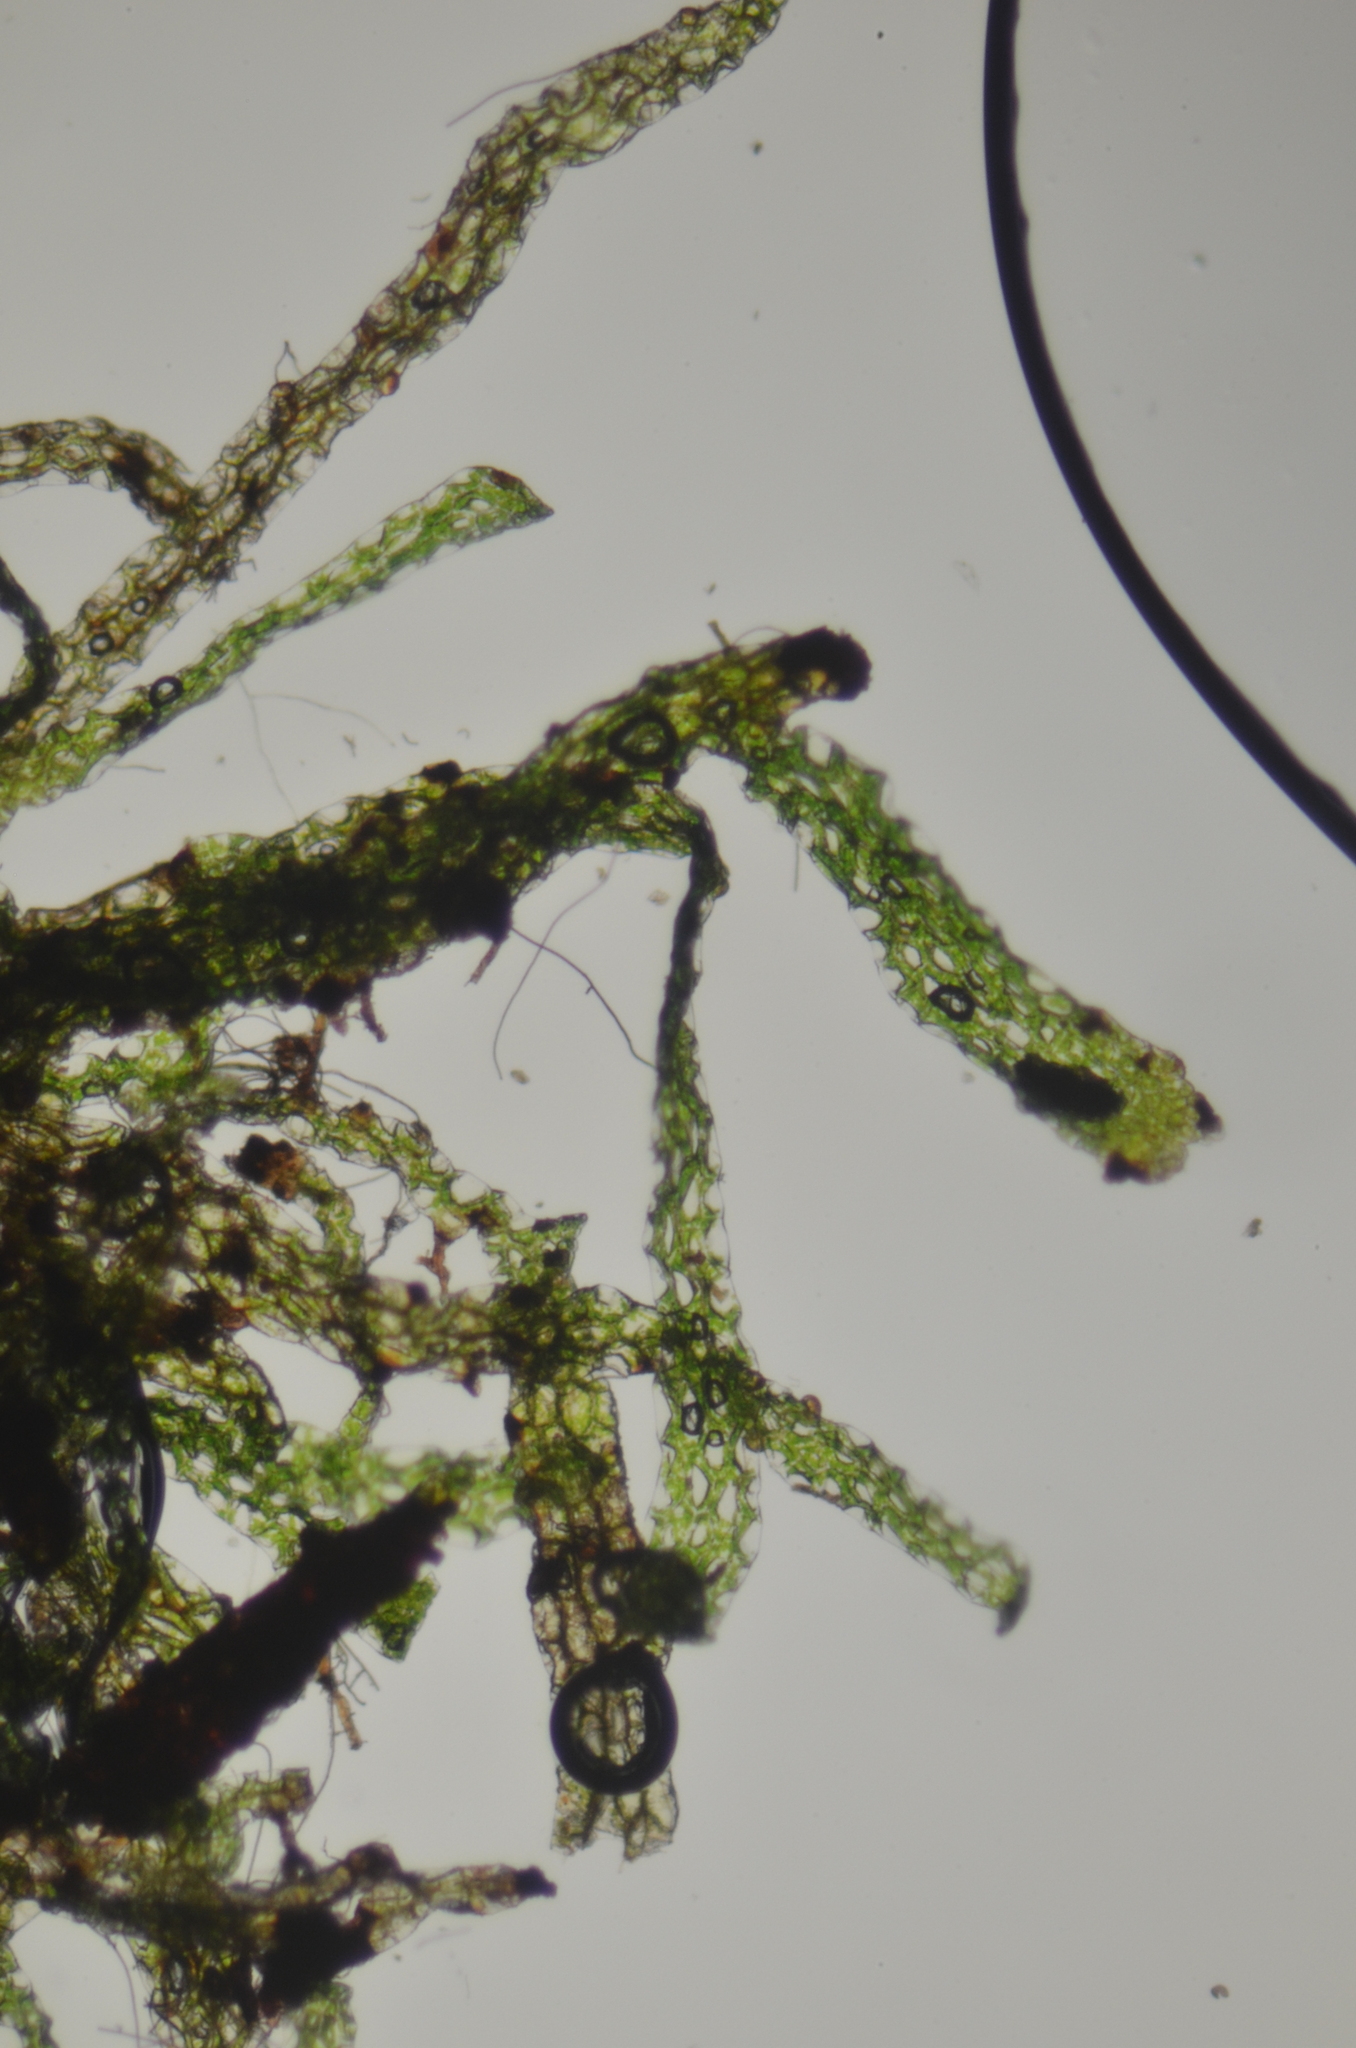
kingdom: Plantae
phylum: Tracheophyta
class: Polypodiopsida
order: Hymenophyllales
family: Hymenophyllaceae
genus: Hymenophyllum
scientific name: Hymenophyllum wrightii
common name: Wright's filmy fern
